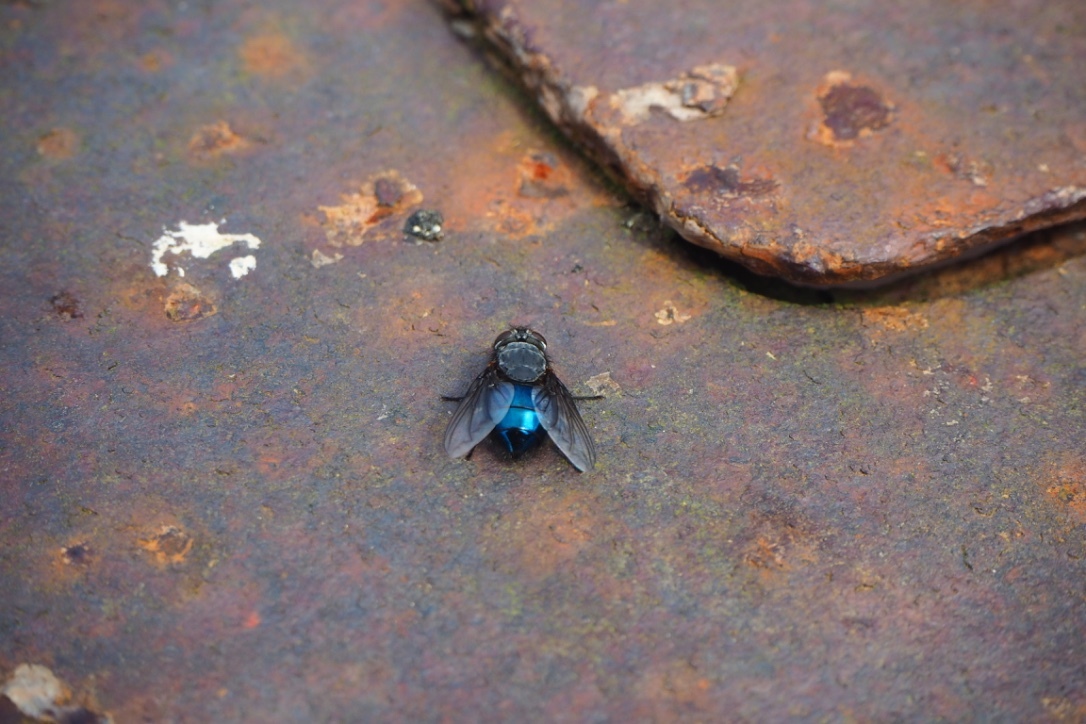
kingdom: Animalia
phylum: Arthropoda
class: Insecta
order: Diptera
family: Calliphoridae
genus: Calliphora
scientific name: Calliphora quadrimaculata
